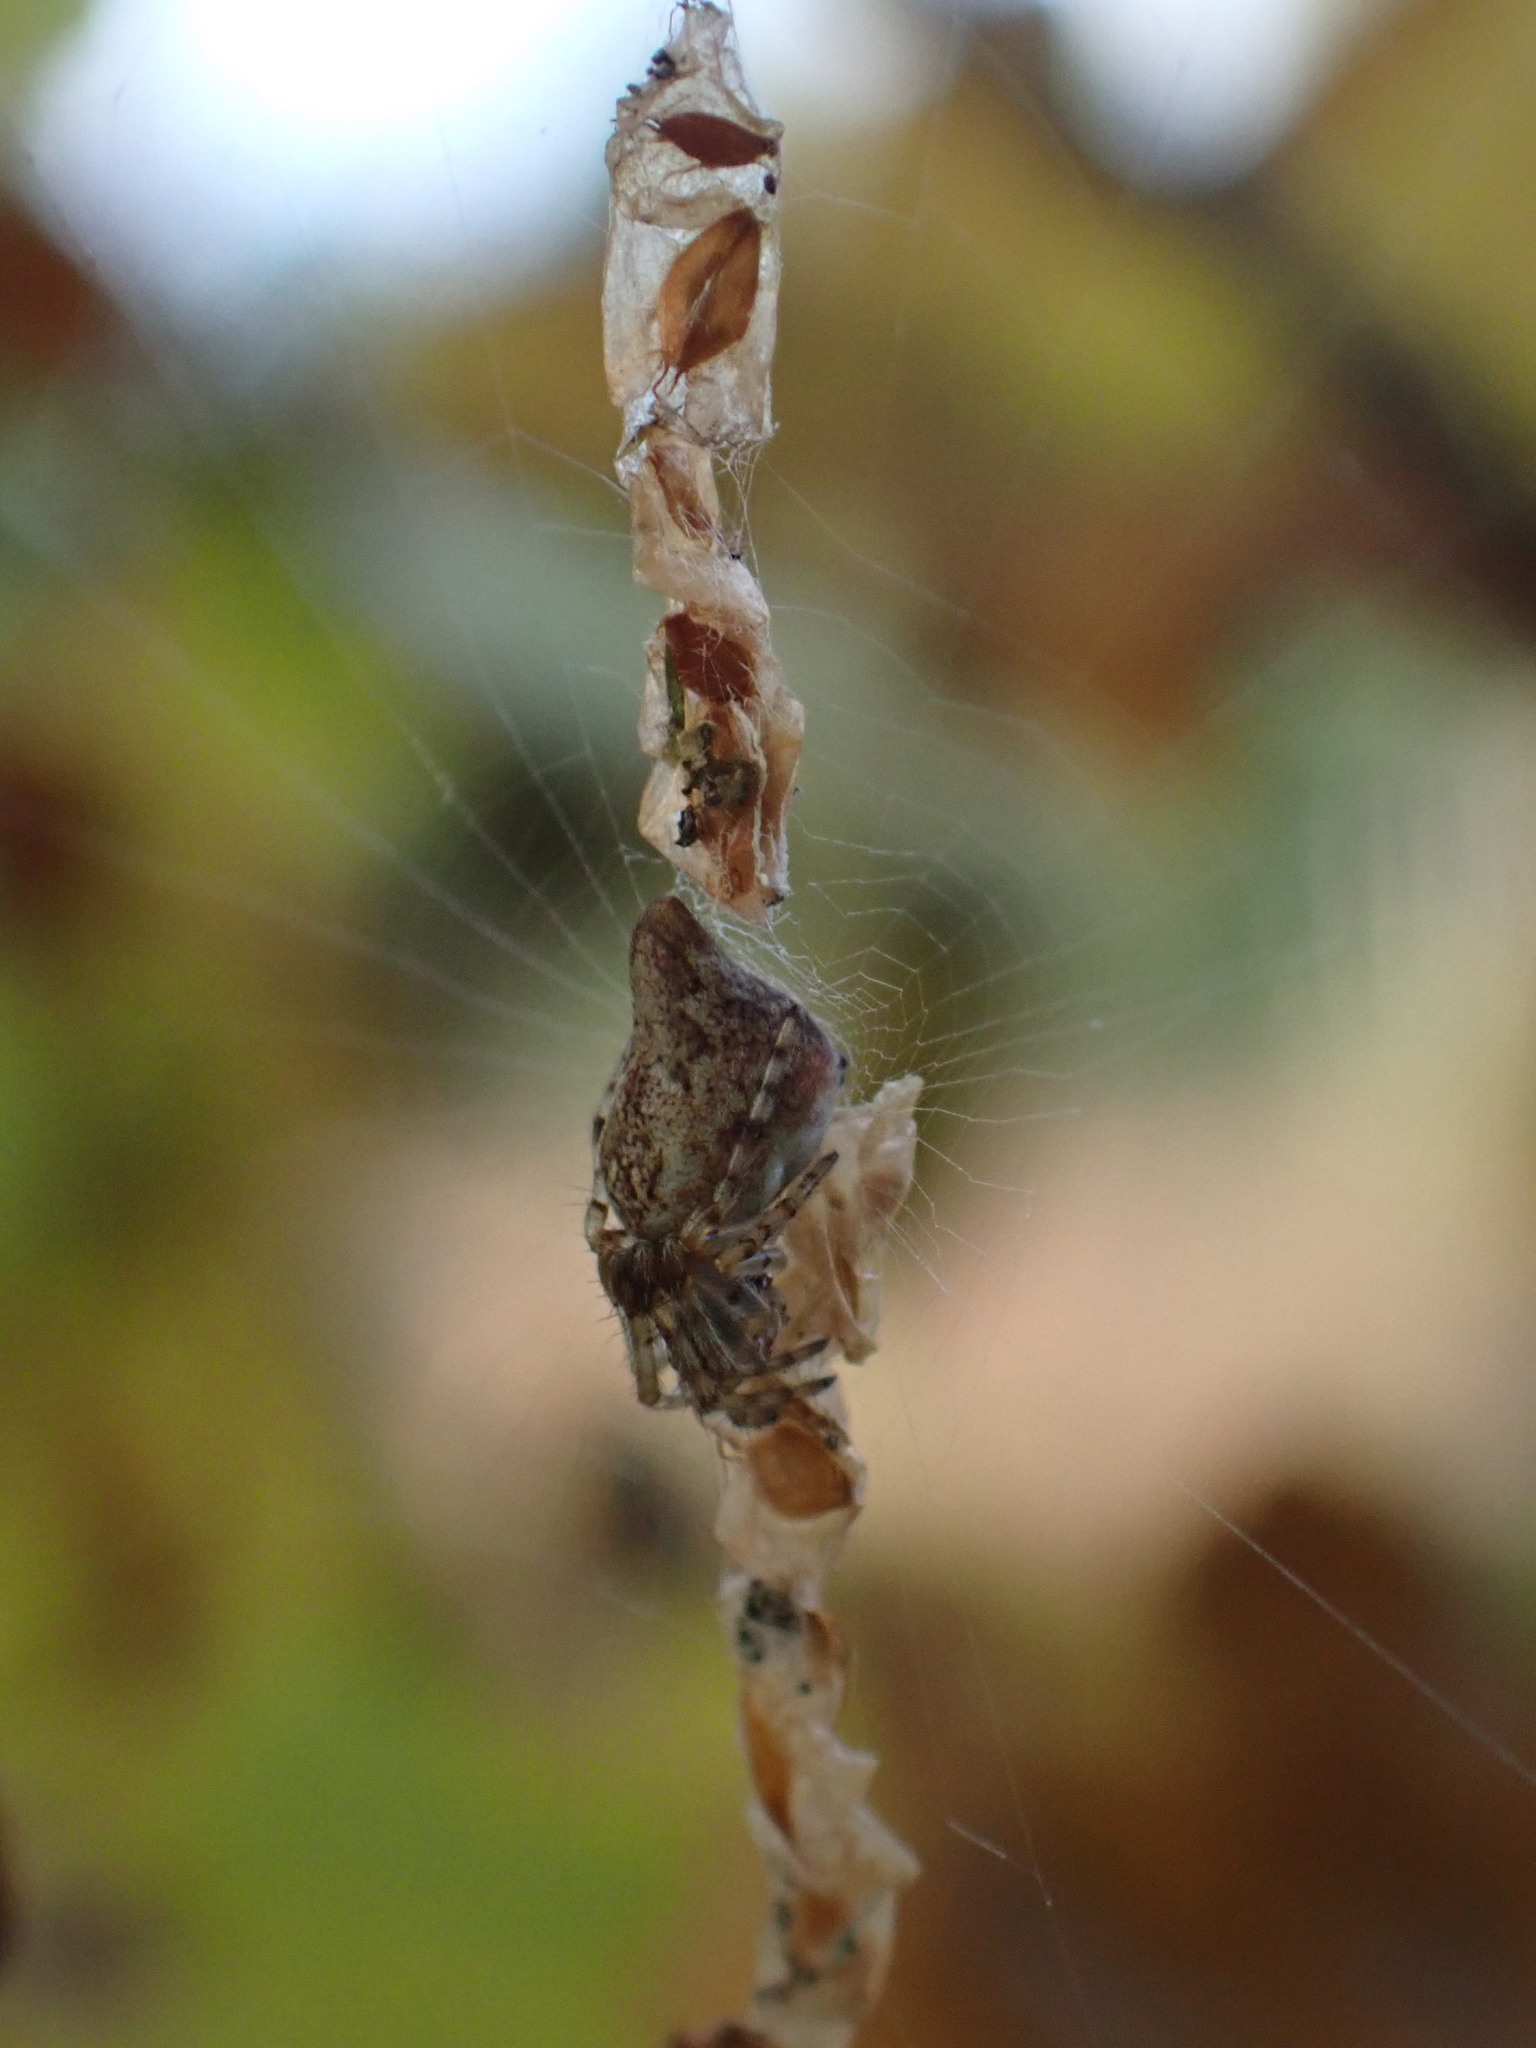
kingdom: Animalia
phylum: Arthropoda
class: Arachnida
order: Araneae
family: Araneidae
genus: Cyclosa
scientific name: Cyclosa conica
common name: Conical trashline orbweaver
